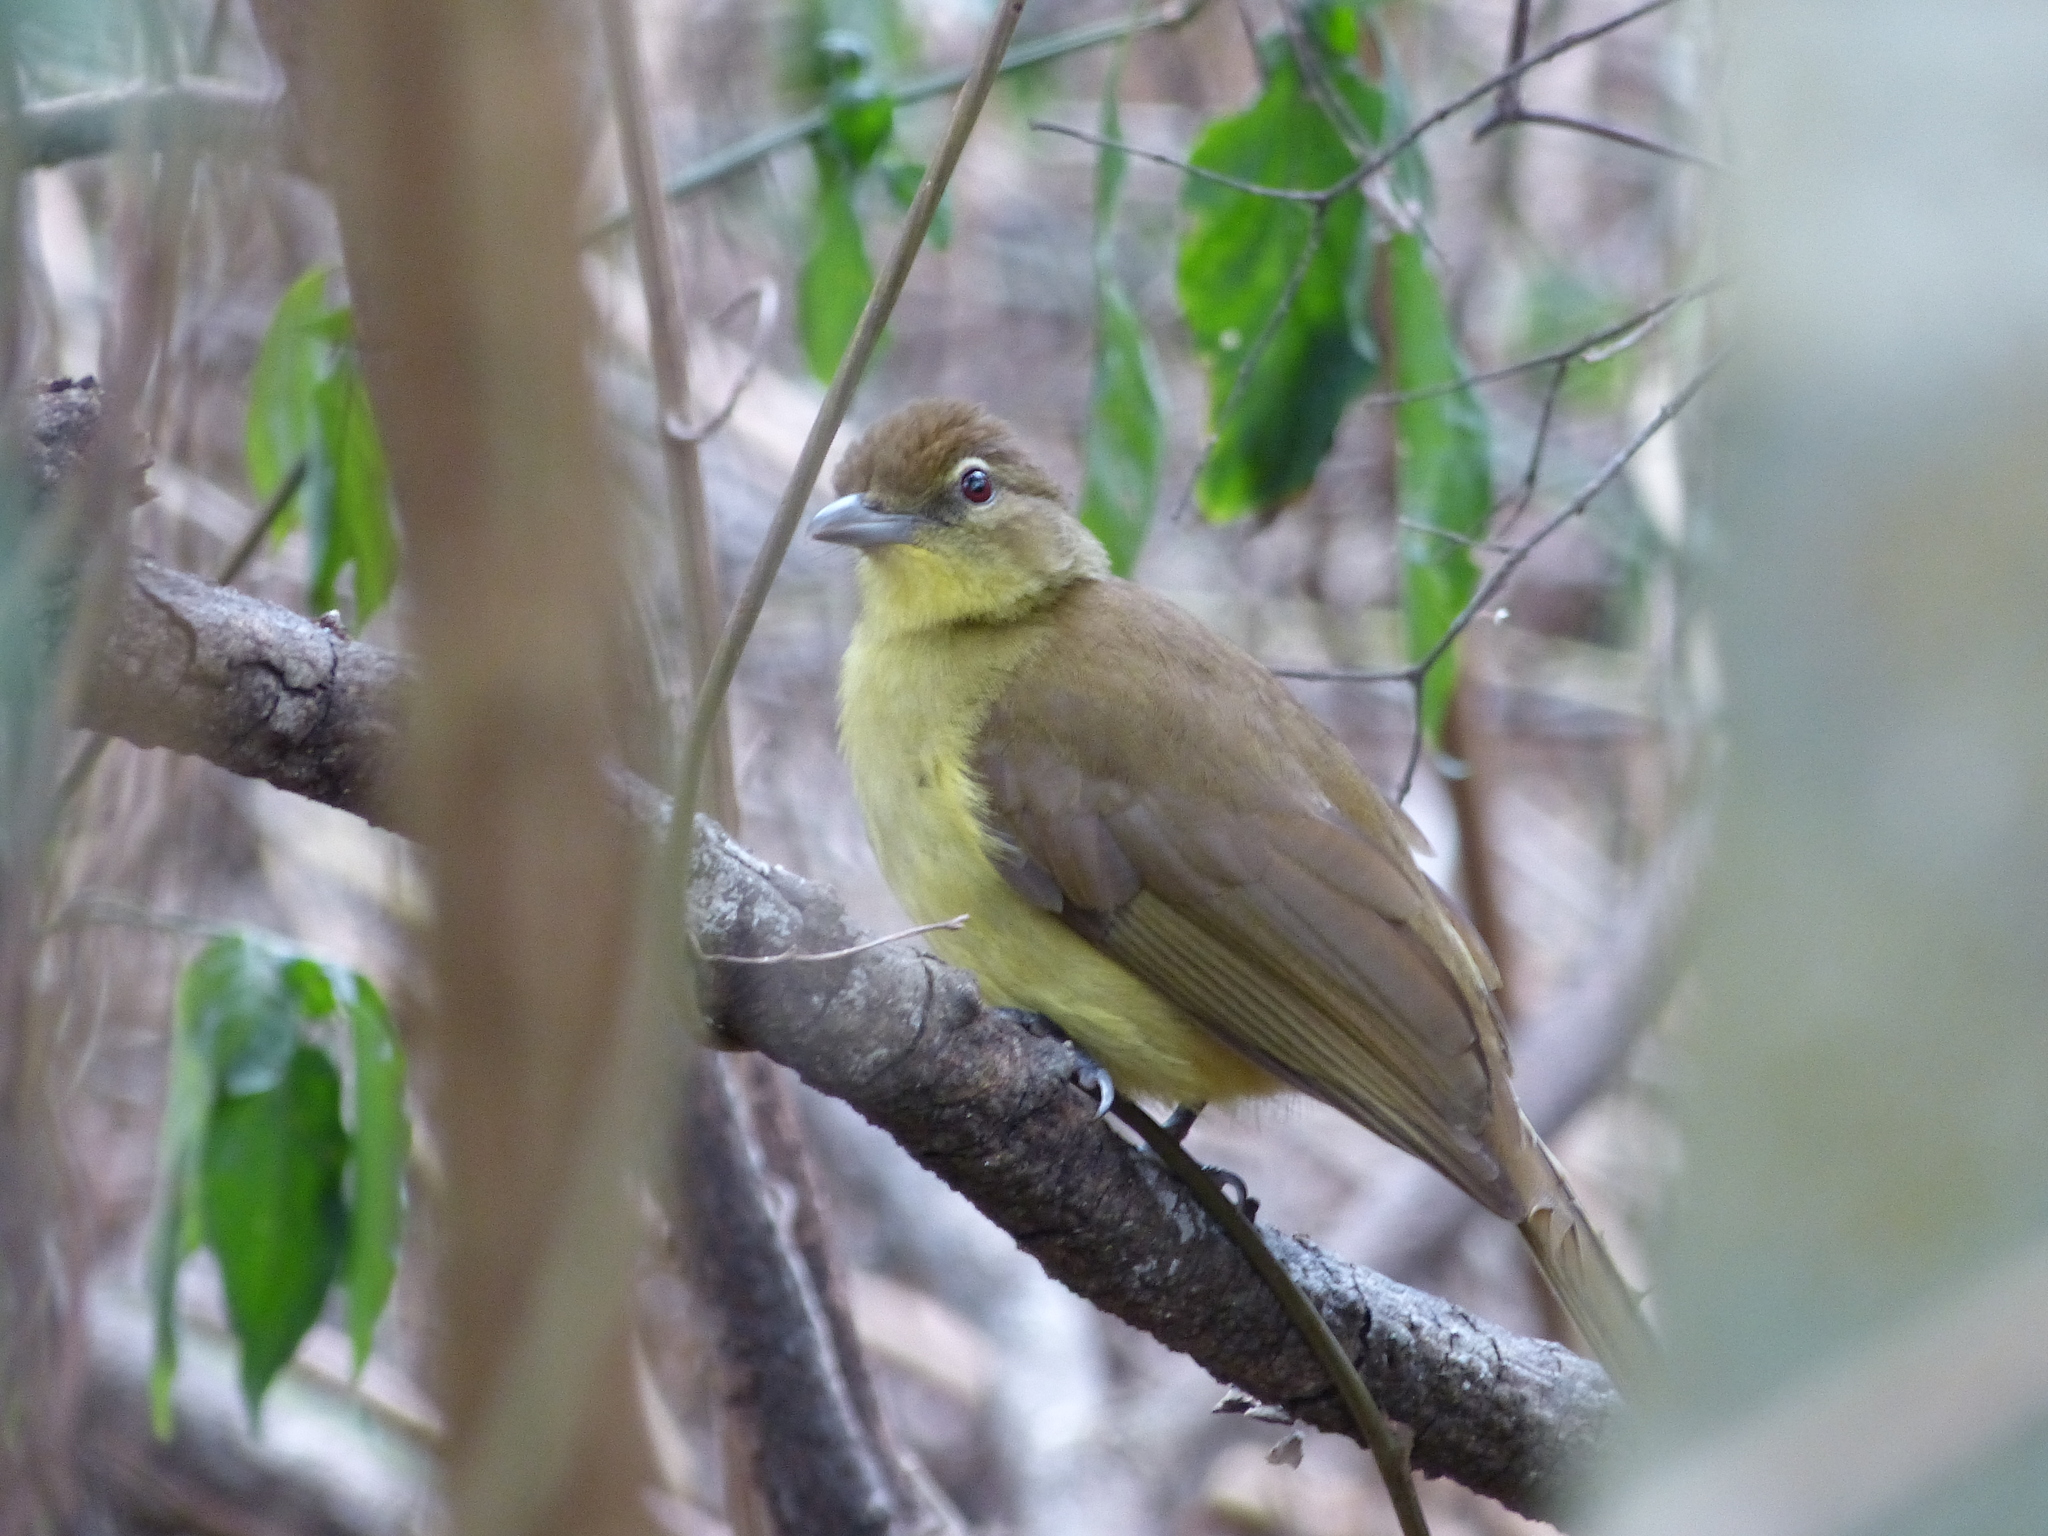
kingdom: Animalia
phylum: Chordata
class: Aves
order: Passeriformes
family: Pycnonotidae
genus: Chlorocichla
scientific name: Chlorocichla flaviventris
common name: Yellow-bellied greenbul
